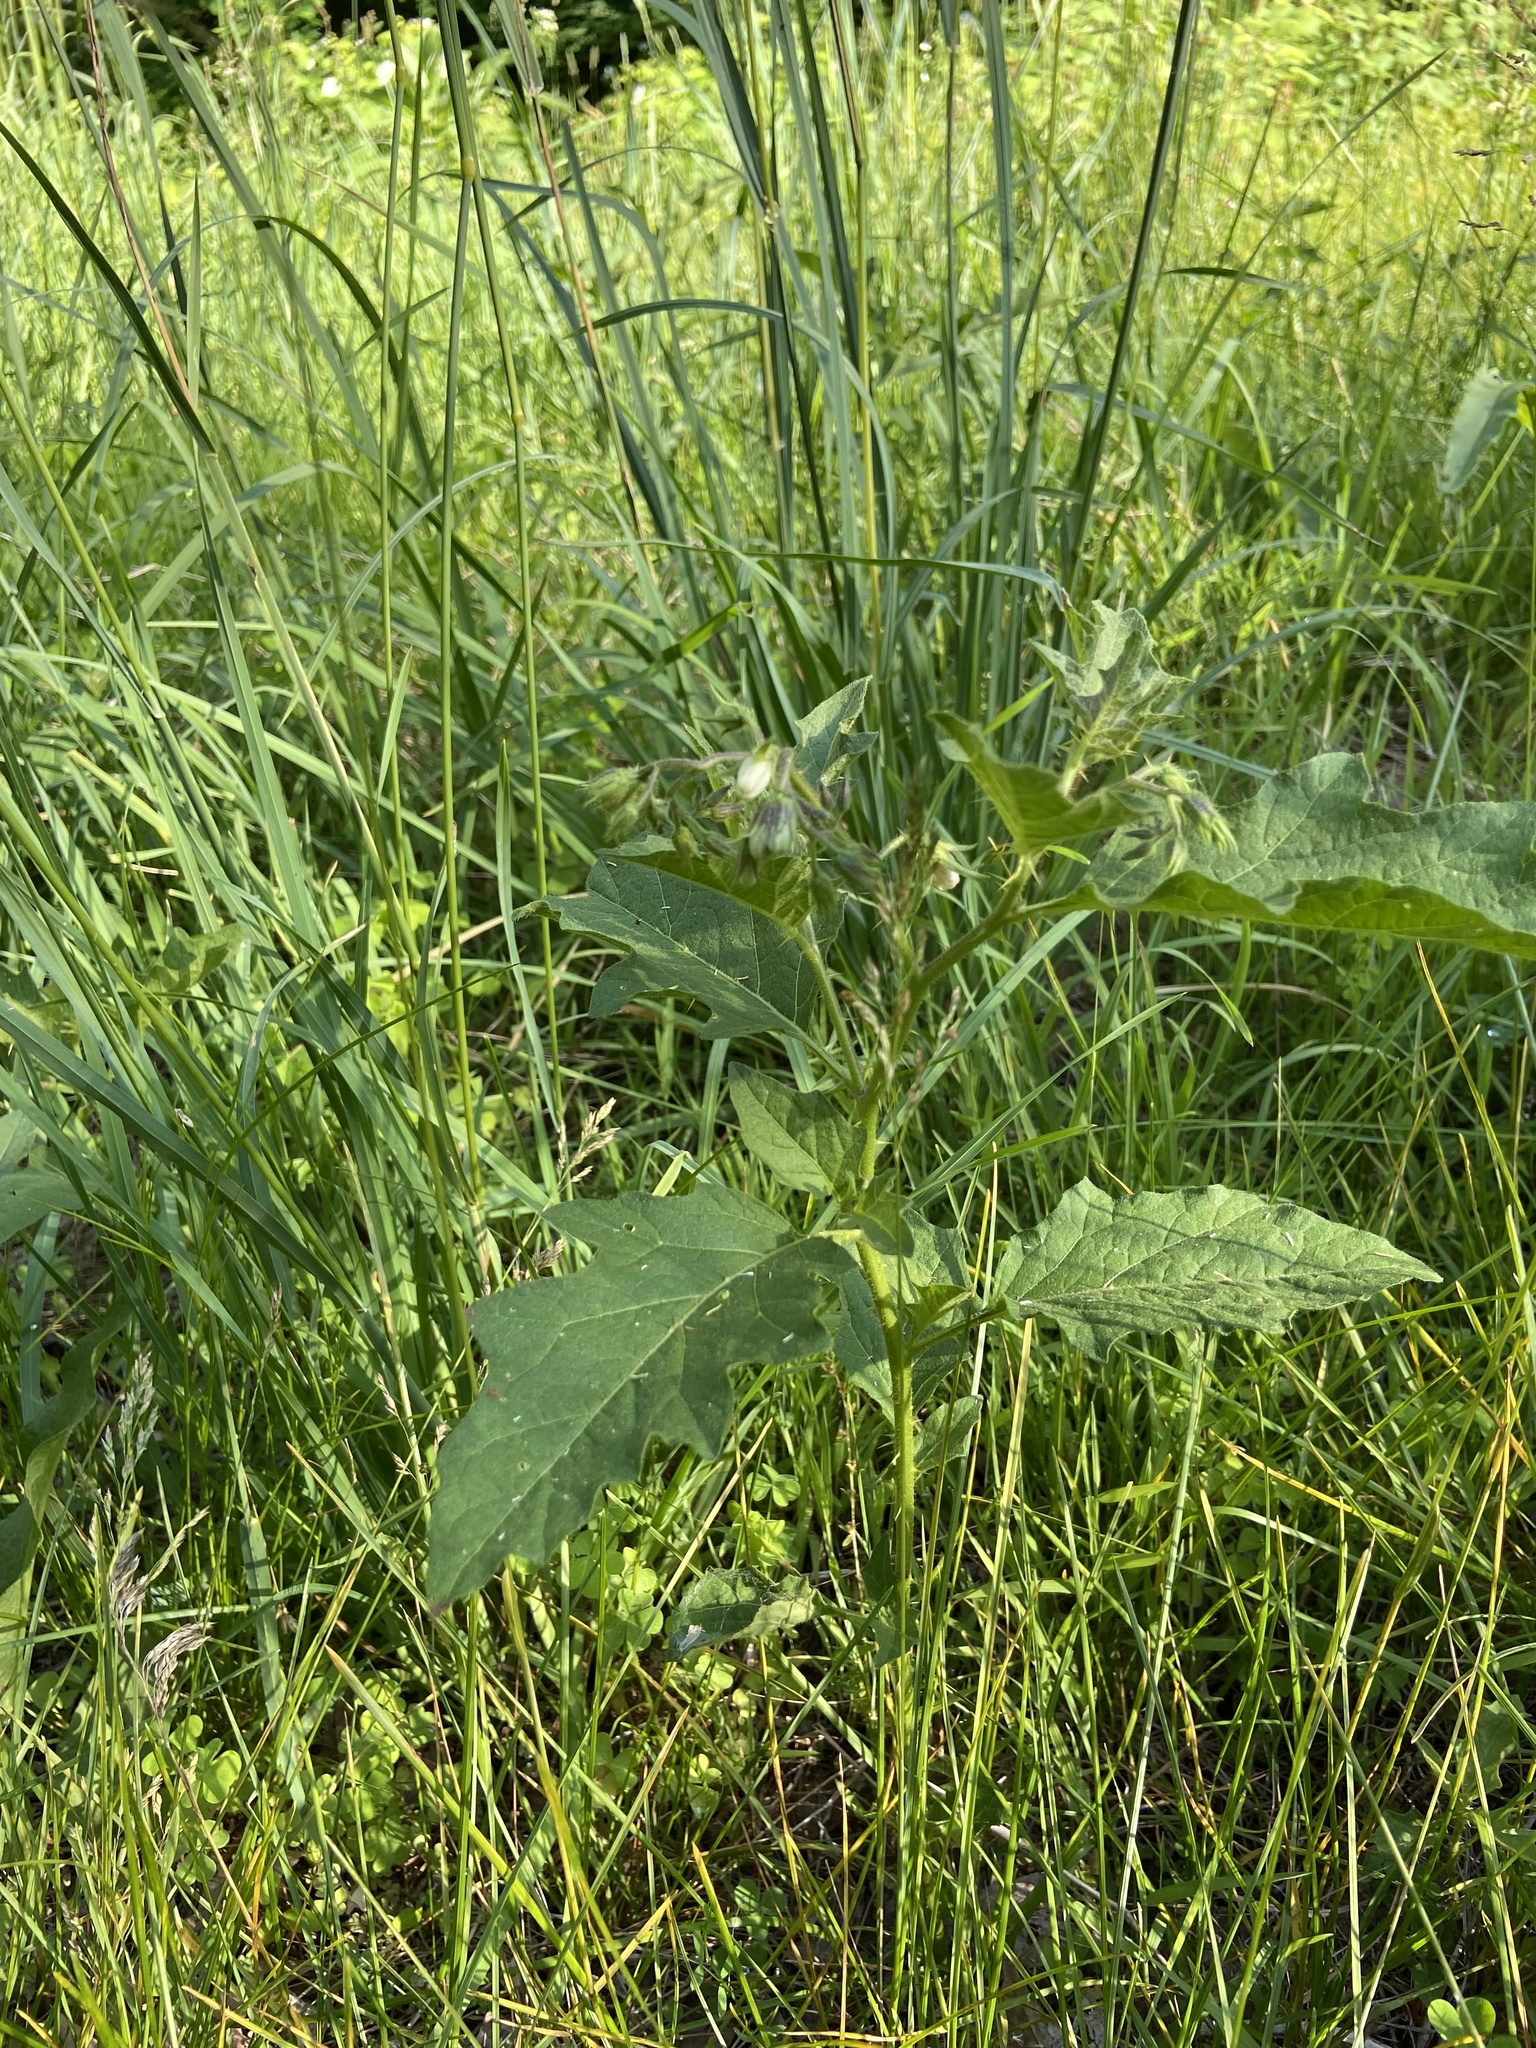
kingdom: Plantae
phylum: Tracheophyta
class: Magnoliopsida
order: Solanales
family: Solanaceae
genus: Solanum
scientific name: Solanum carolinense
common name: Horse-nettle
